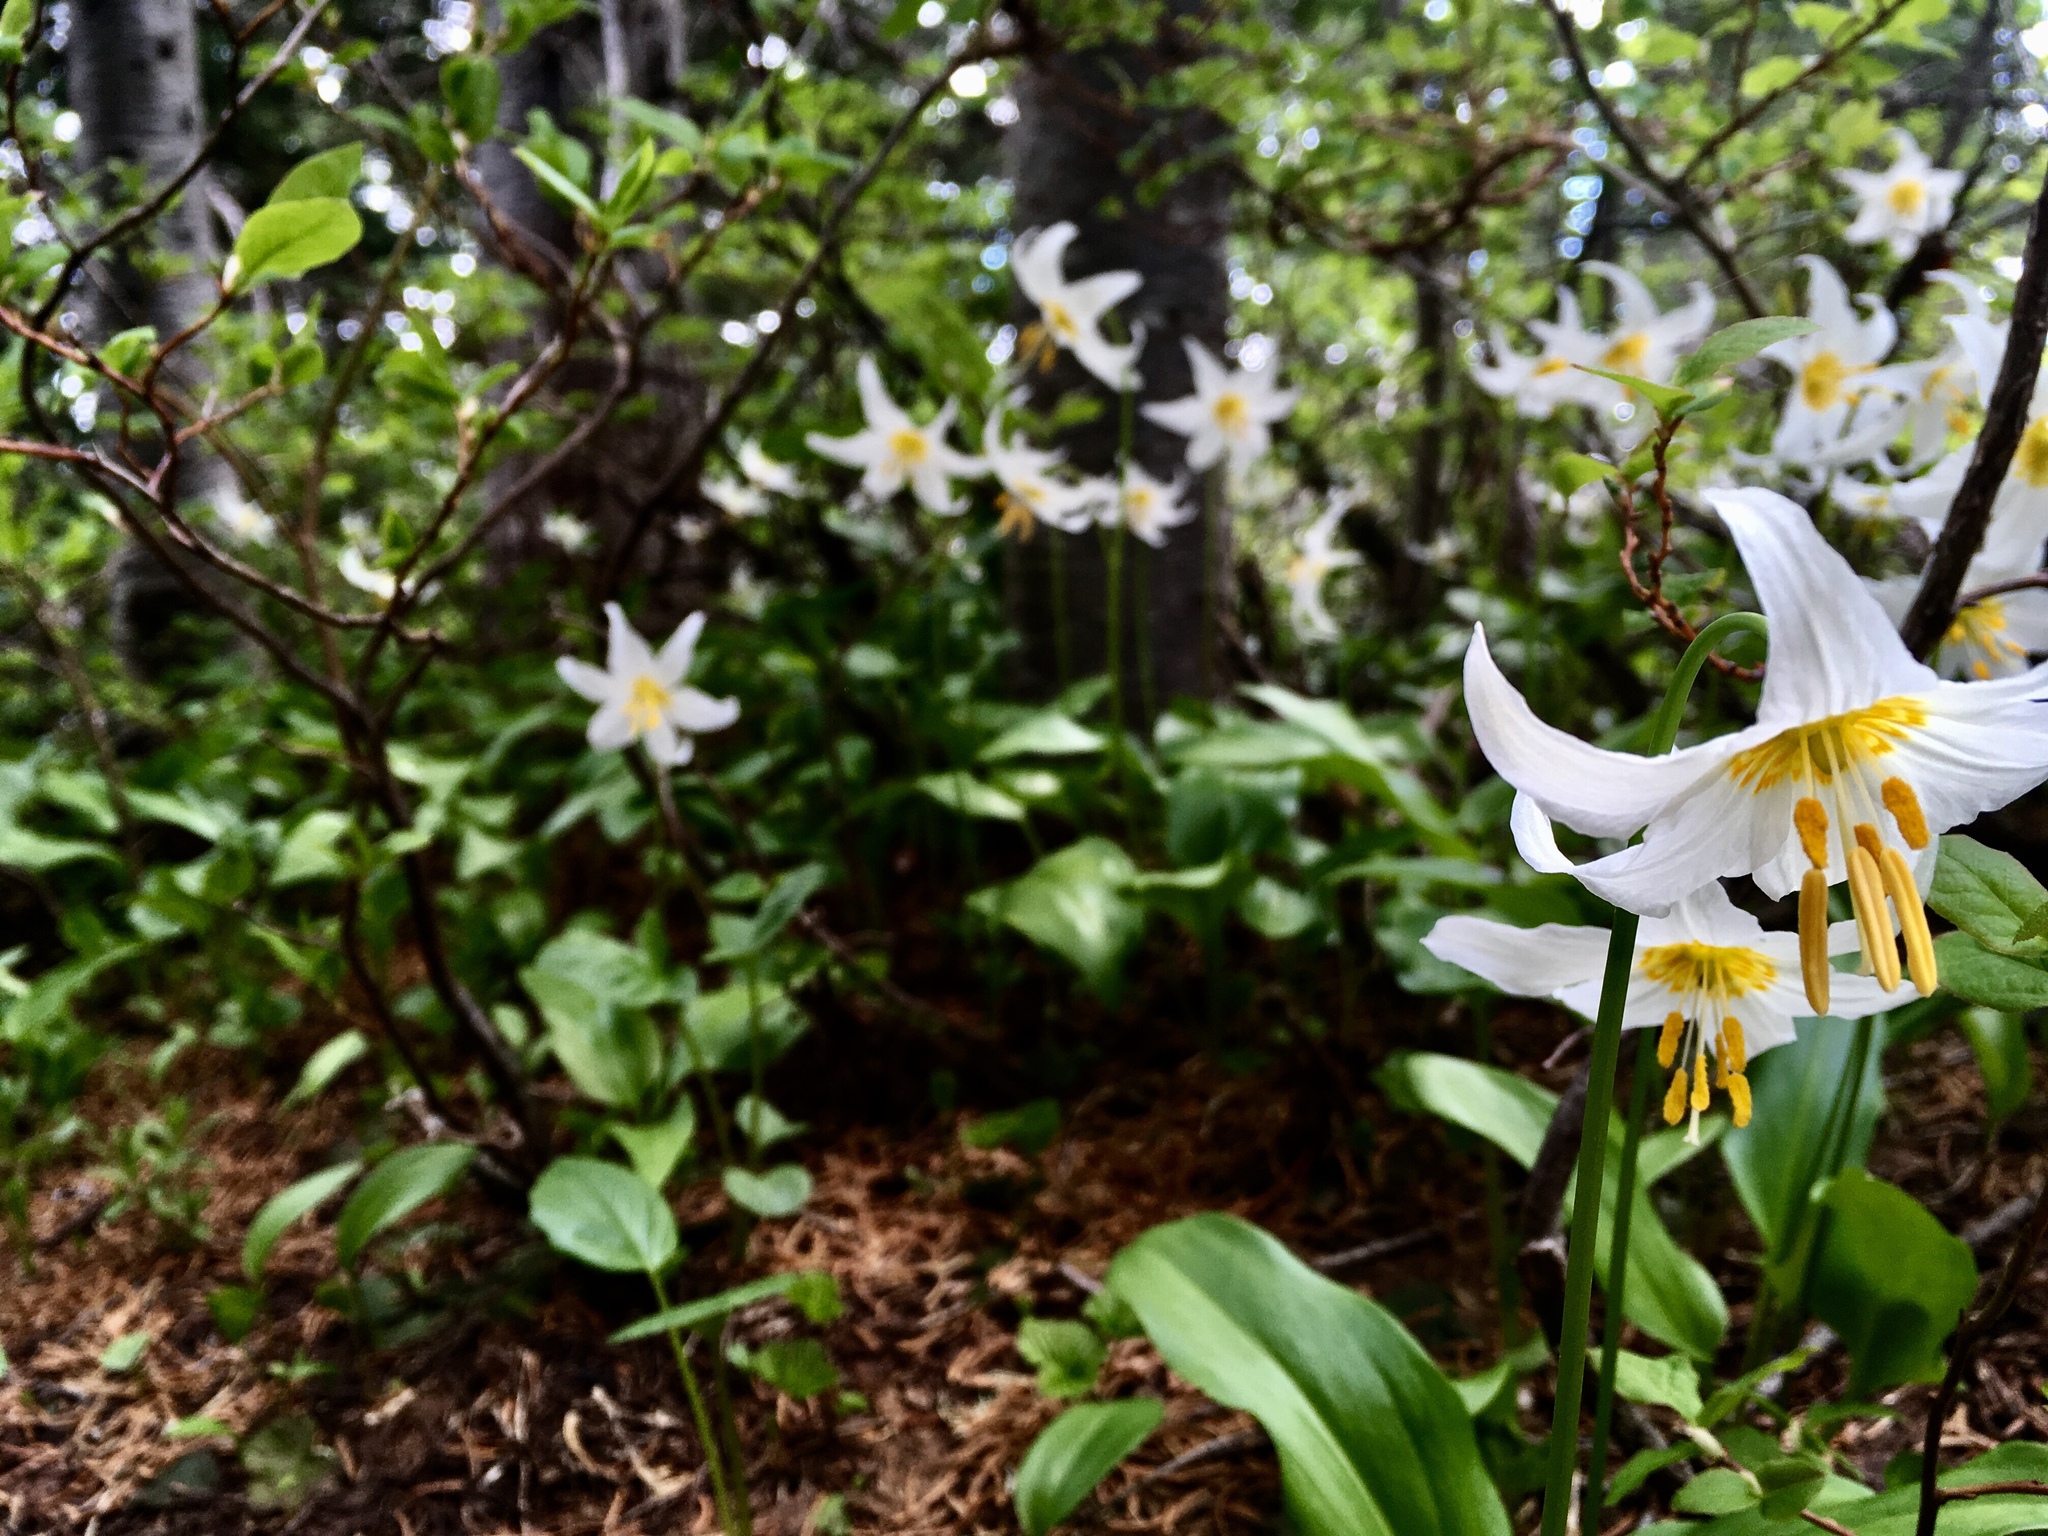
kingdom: Plantae
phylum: Tracheophyta
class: Liliopsida
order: Liliales
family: Liliaceae
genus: Erythronium
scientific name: Erythronium montanum
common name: Avalanche lily
